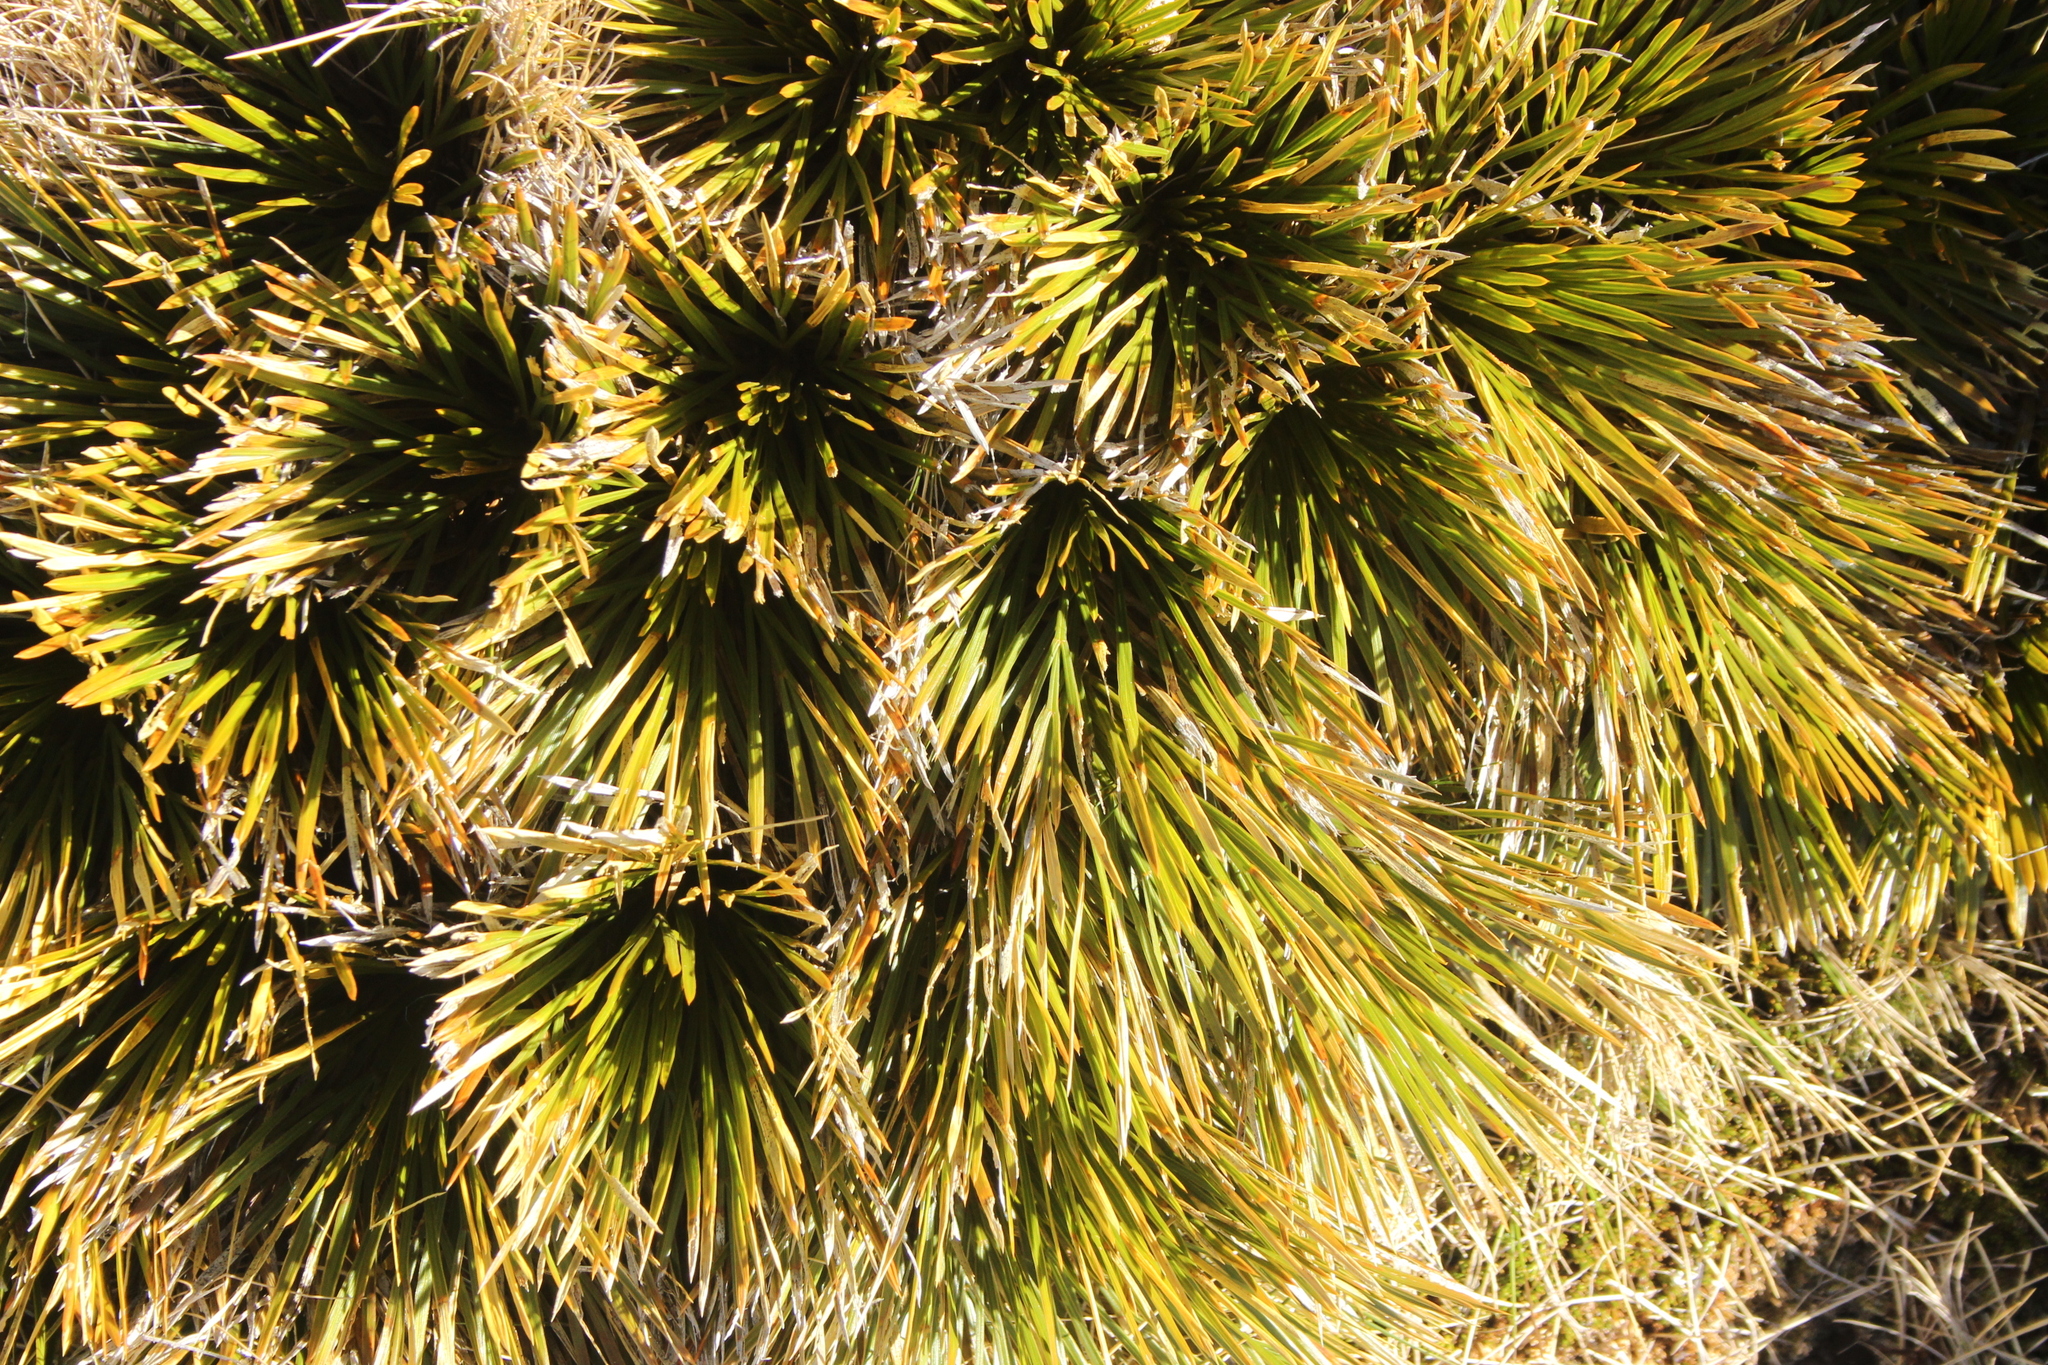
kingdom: Plantae
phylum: Tracheophyta
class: Magnoliopsida
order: Apiales
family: Apiaceae
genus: Aciphylla
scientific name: Aciphylla lecomtei
